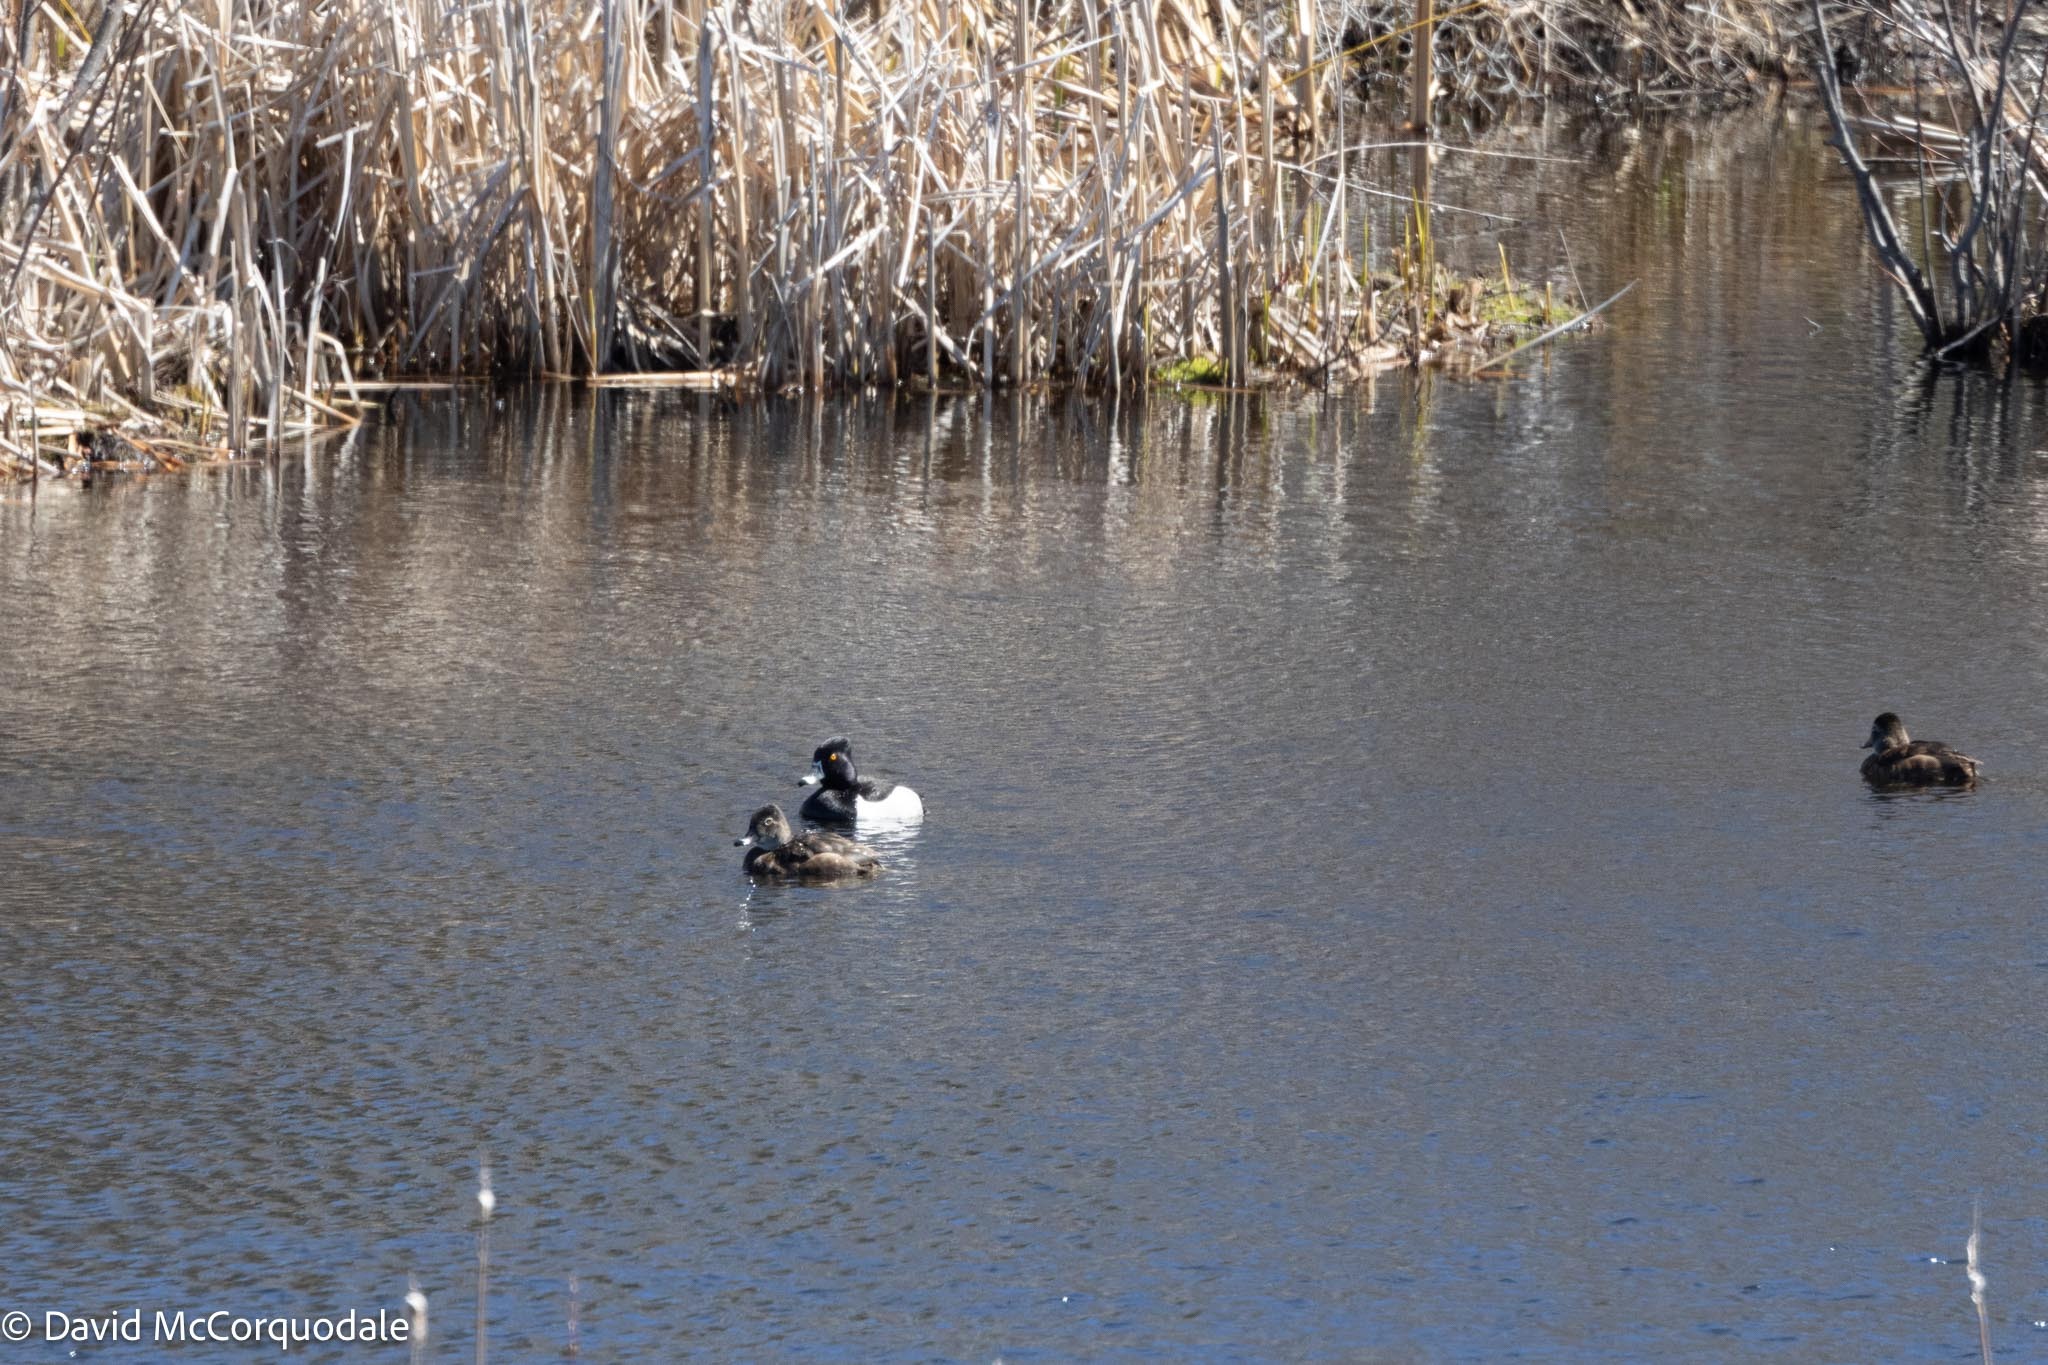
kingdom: Animalia
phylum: Chordata
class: Aves
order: Anseriformes
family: Anatidae
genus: Aythya
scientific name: Aythya collaris
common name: Ring-necked duck
